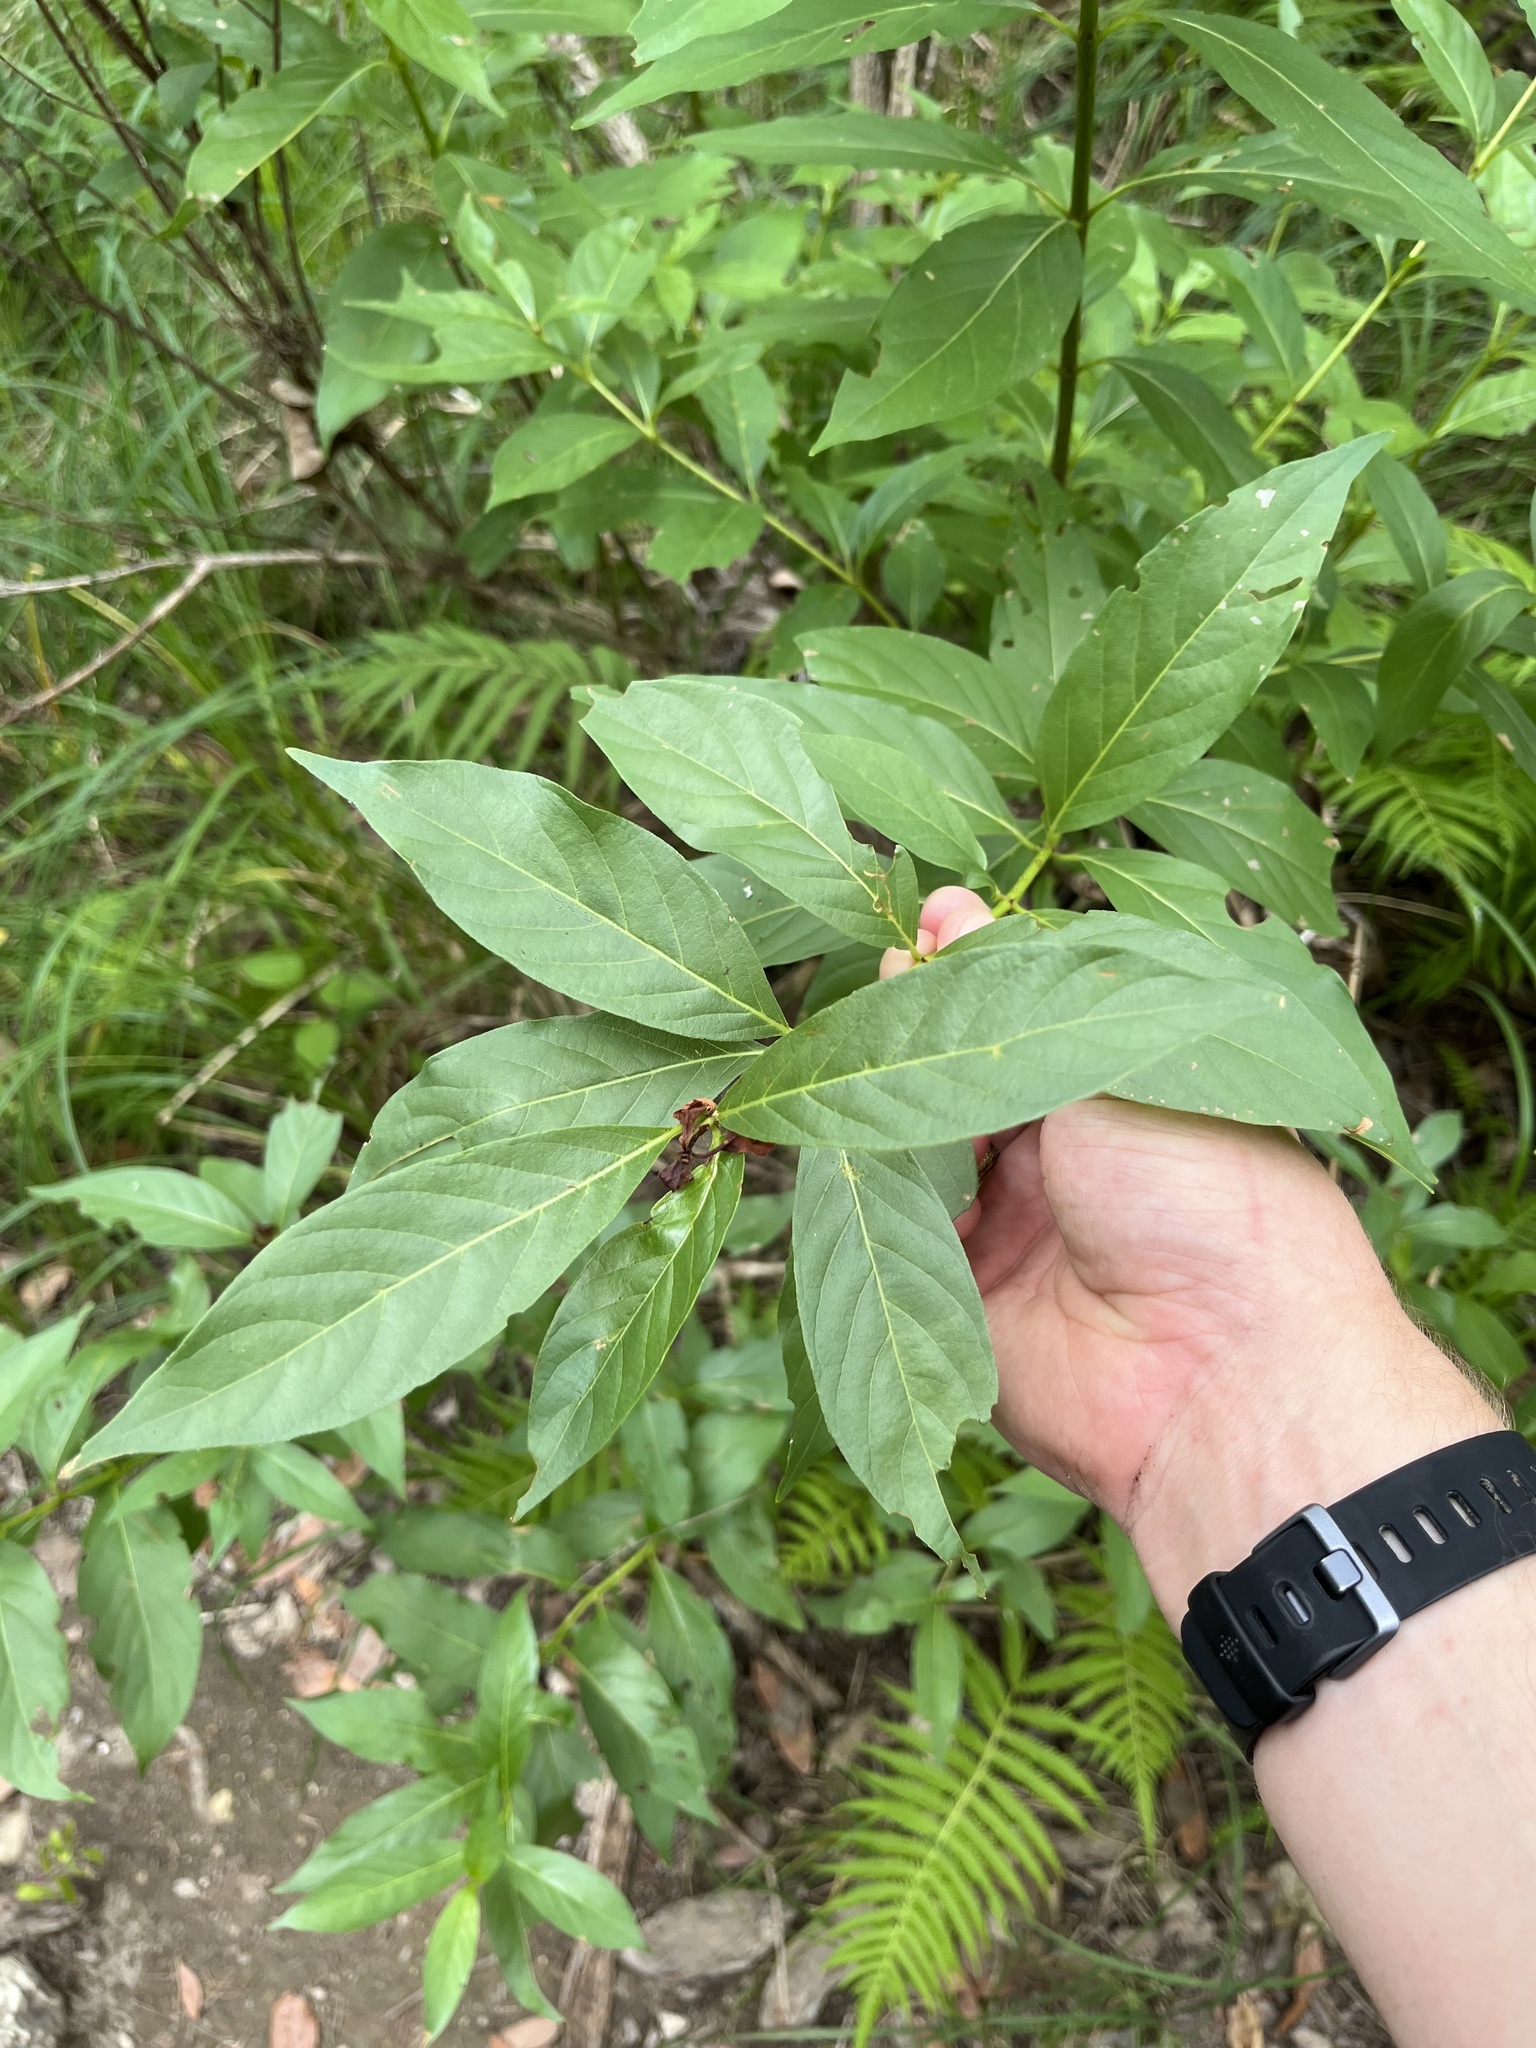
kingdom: Plantae
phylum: Tracheophyta
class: Magnoliopsida
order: Gentianales
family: Rubiaceae
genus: Cephalanthus
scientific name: Cephalanthus occidentalis
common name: Button-willow
